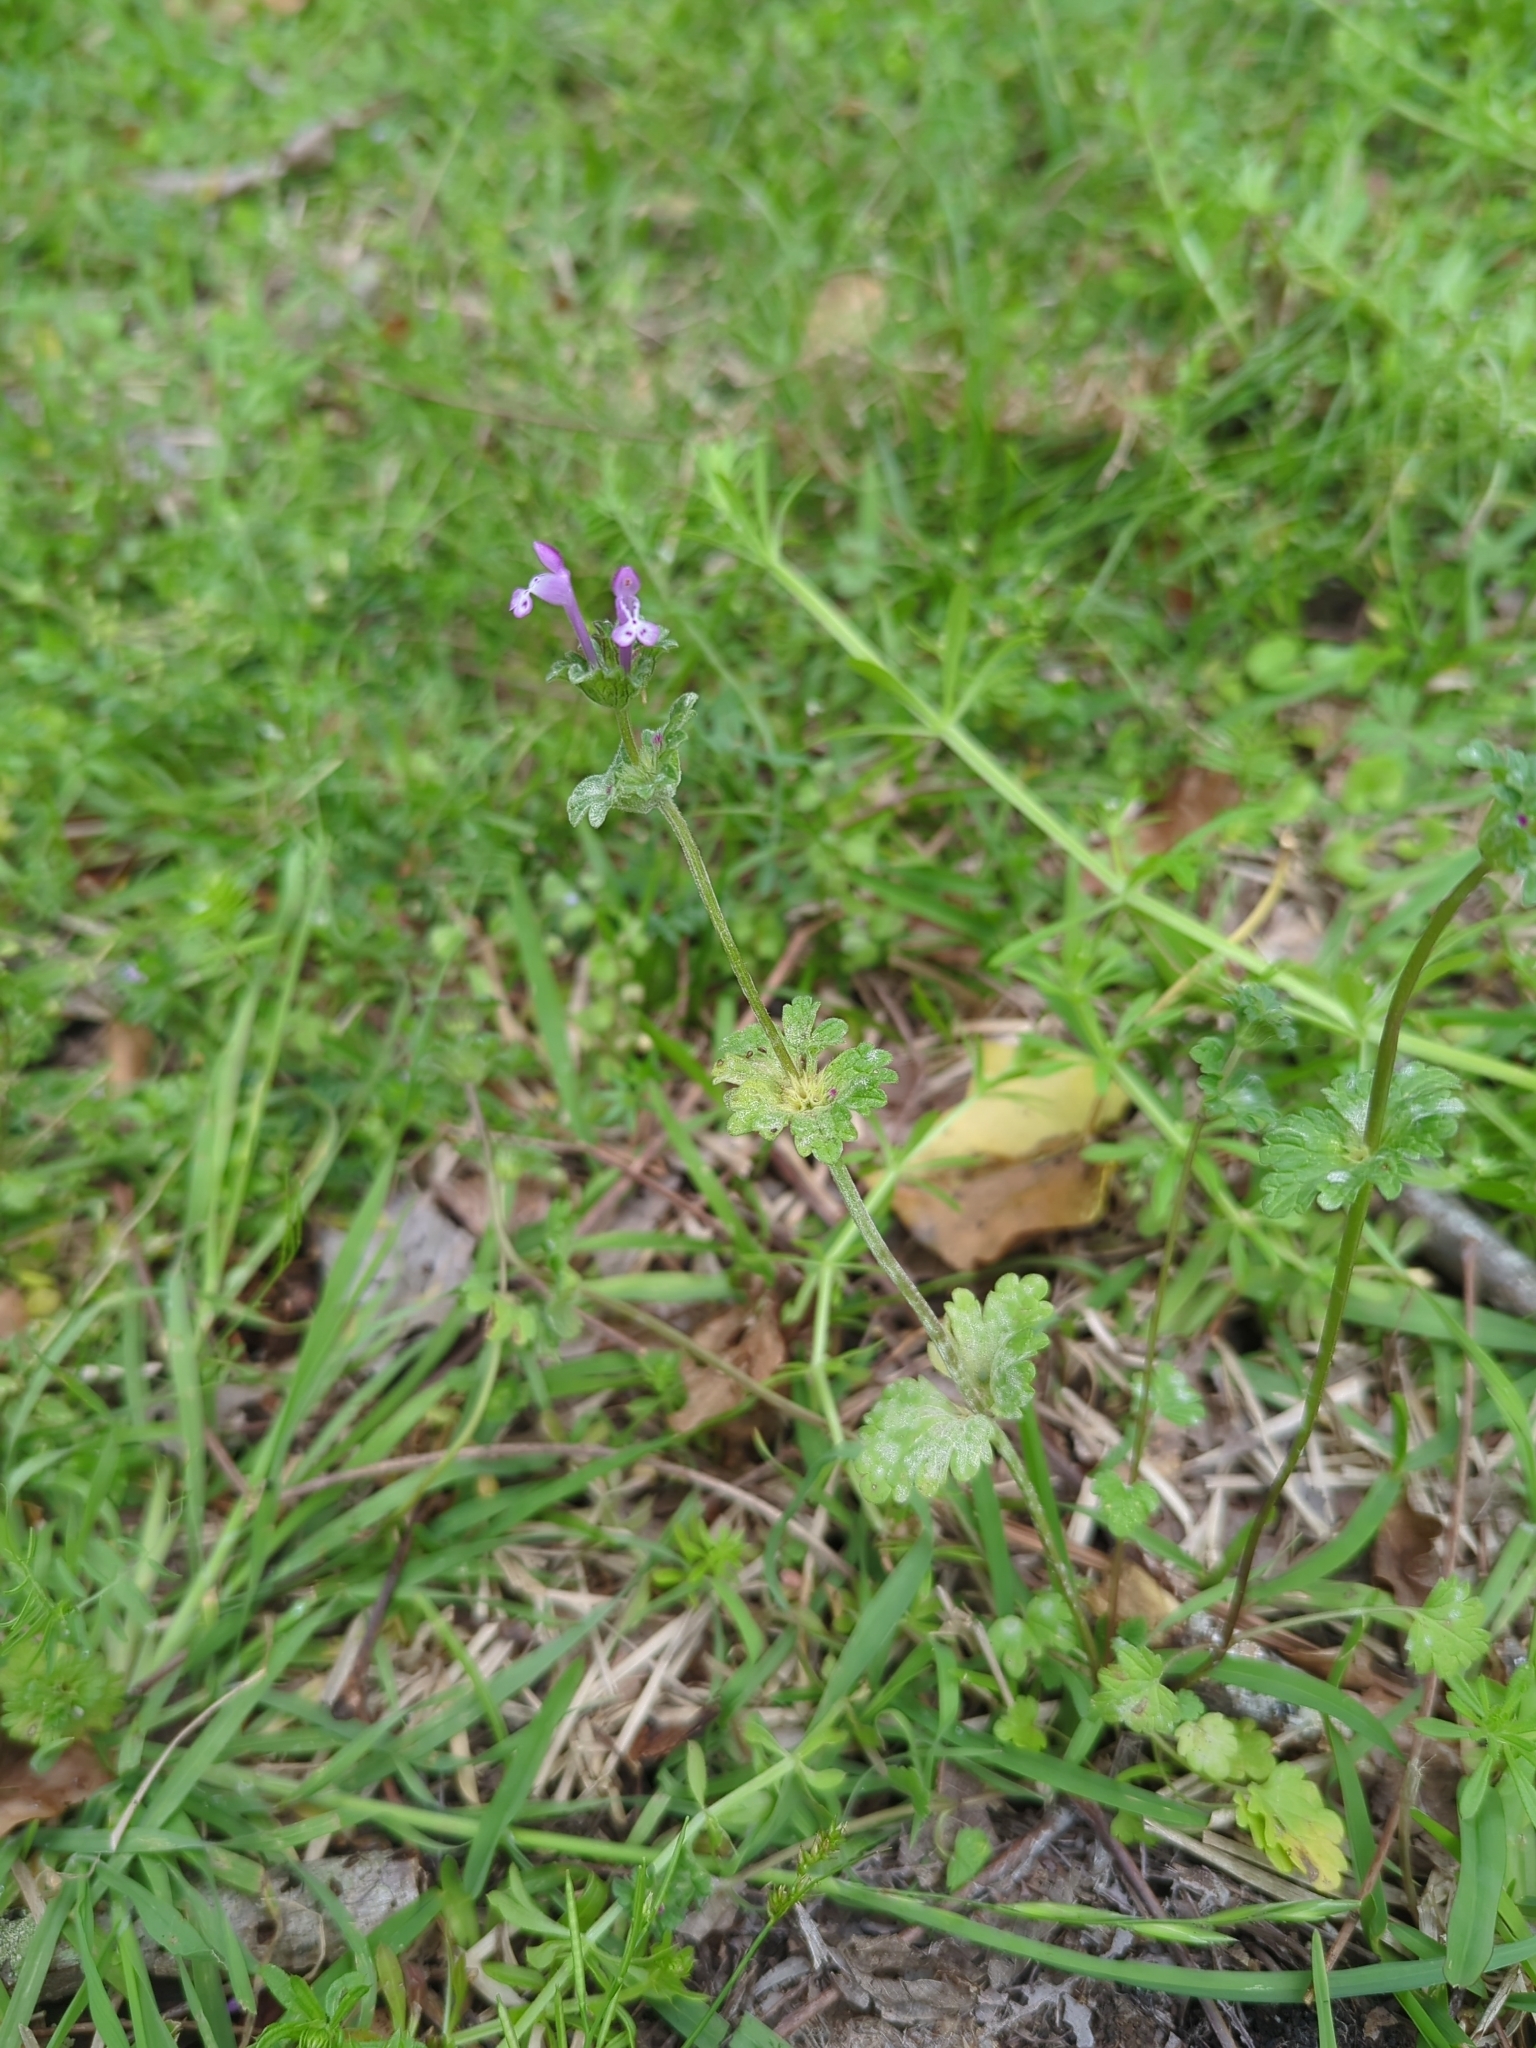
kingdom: Plantae
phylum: Tracheophyta
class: Magnoliopsida
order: Lamiales
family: Lamiaceae
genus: Lamium
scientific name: Lamium amplexicaule
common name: Henbit dead-nettle
